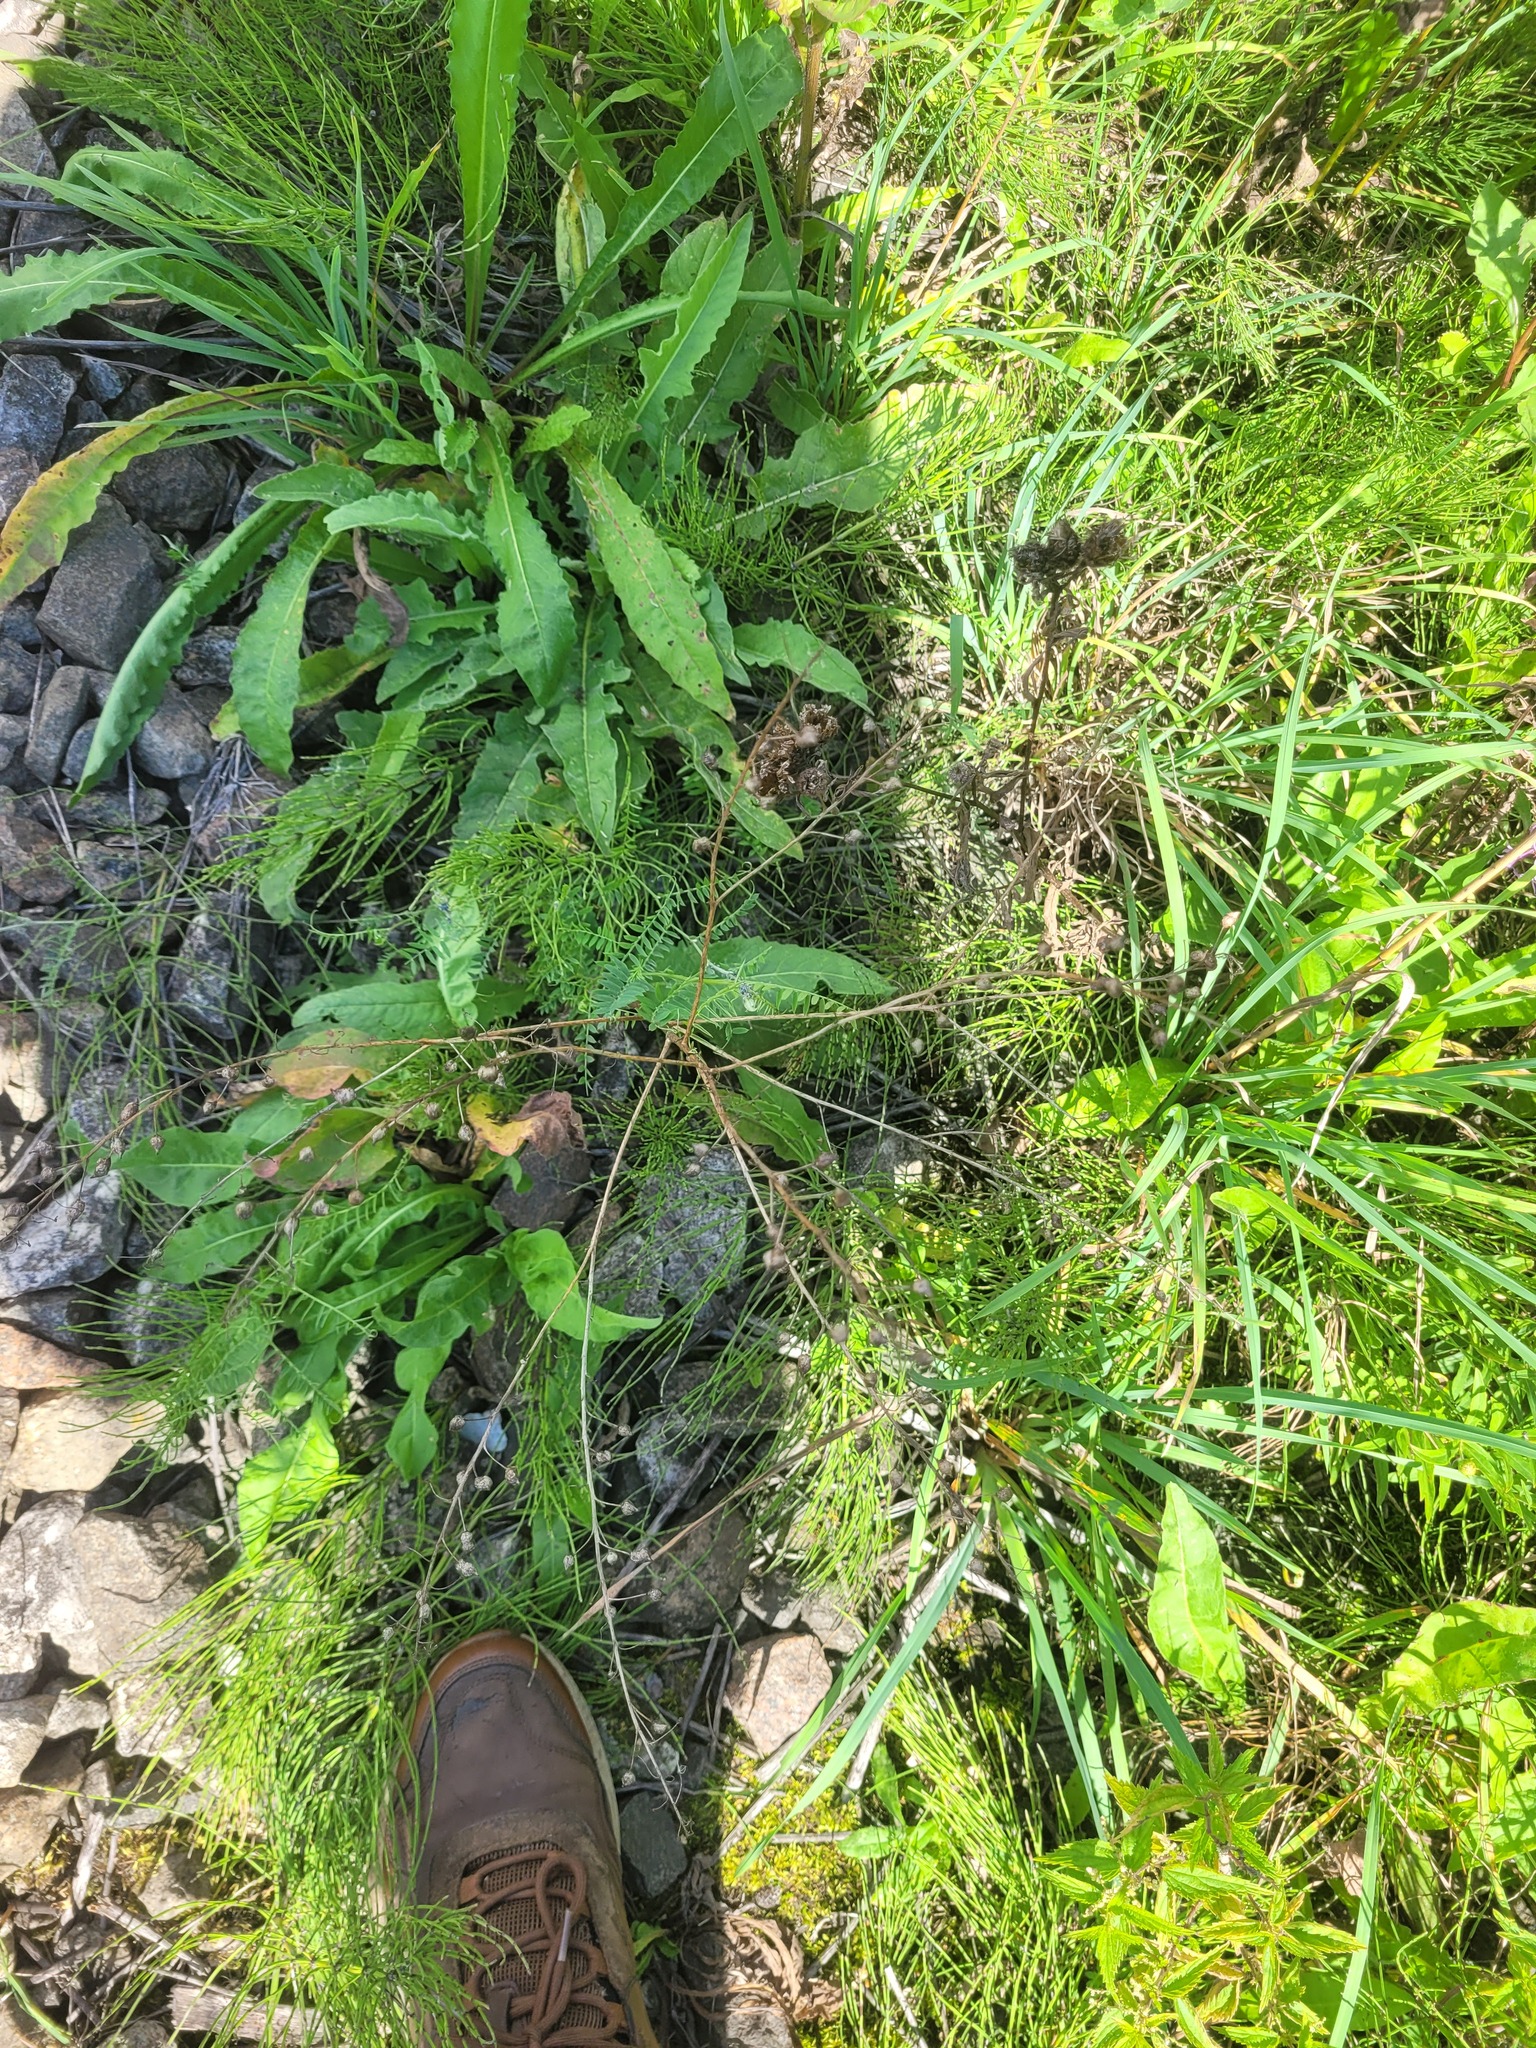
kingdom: Plantae
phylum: Tracheophyta
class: Magnoliopsida
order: Brassicales
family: Brassicaceae
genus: Bunias
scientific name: Bunias orientalis
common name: Warty-cabbage
